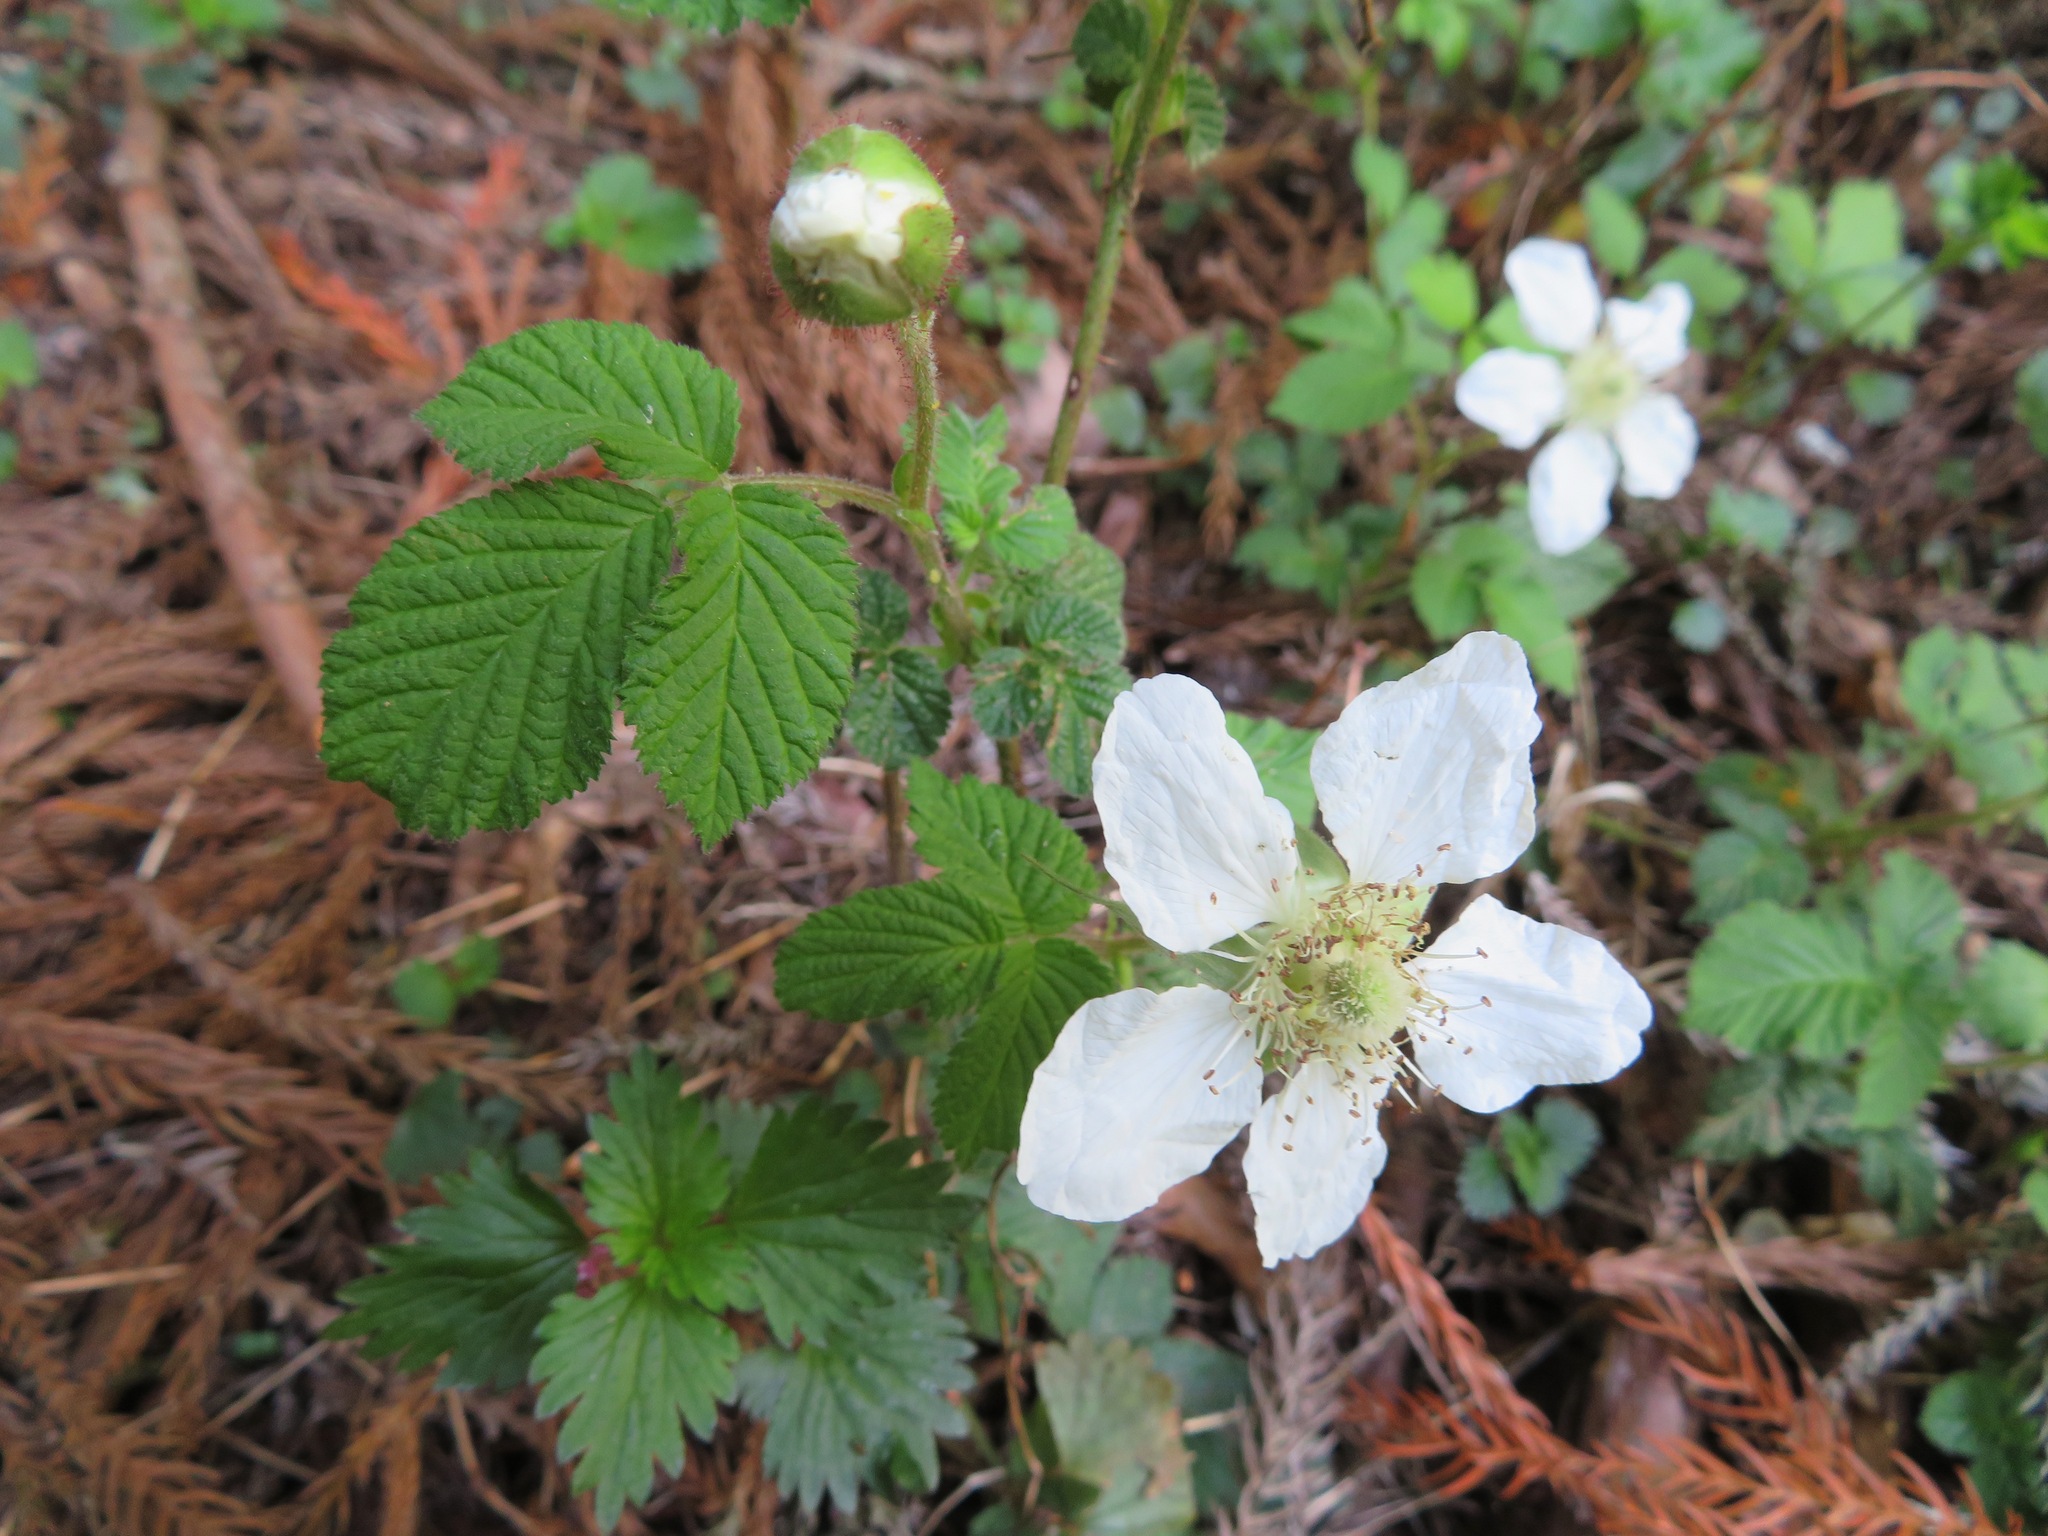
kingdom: Plantae
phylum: Tracheophyta
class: Magnoliopsida
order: Rosales
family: Rosaceae
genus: Rubus
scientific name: Rubus hirsutus
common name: Hirsute raspberry
